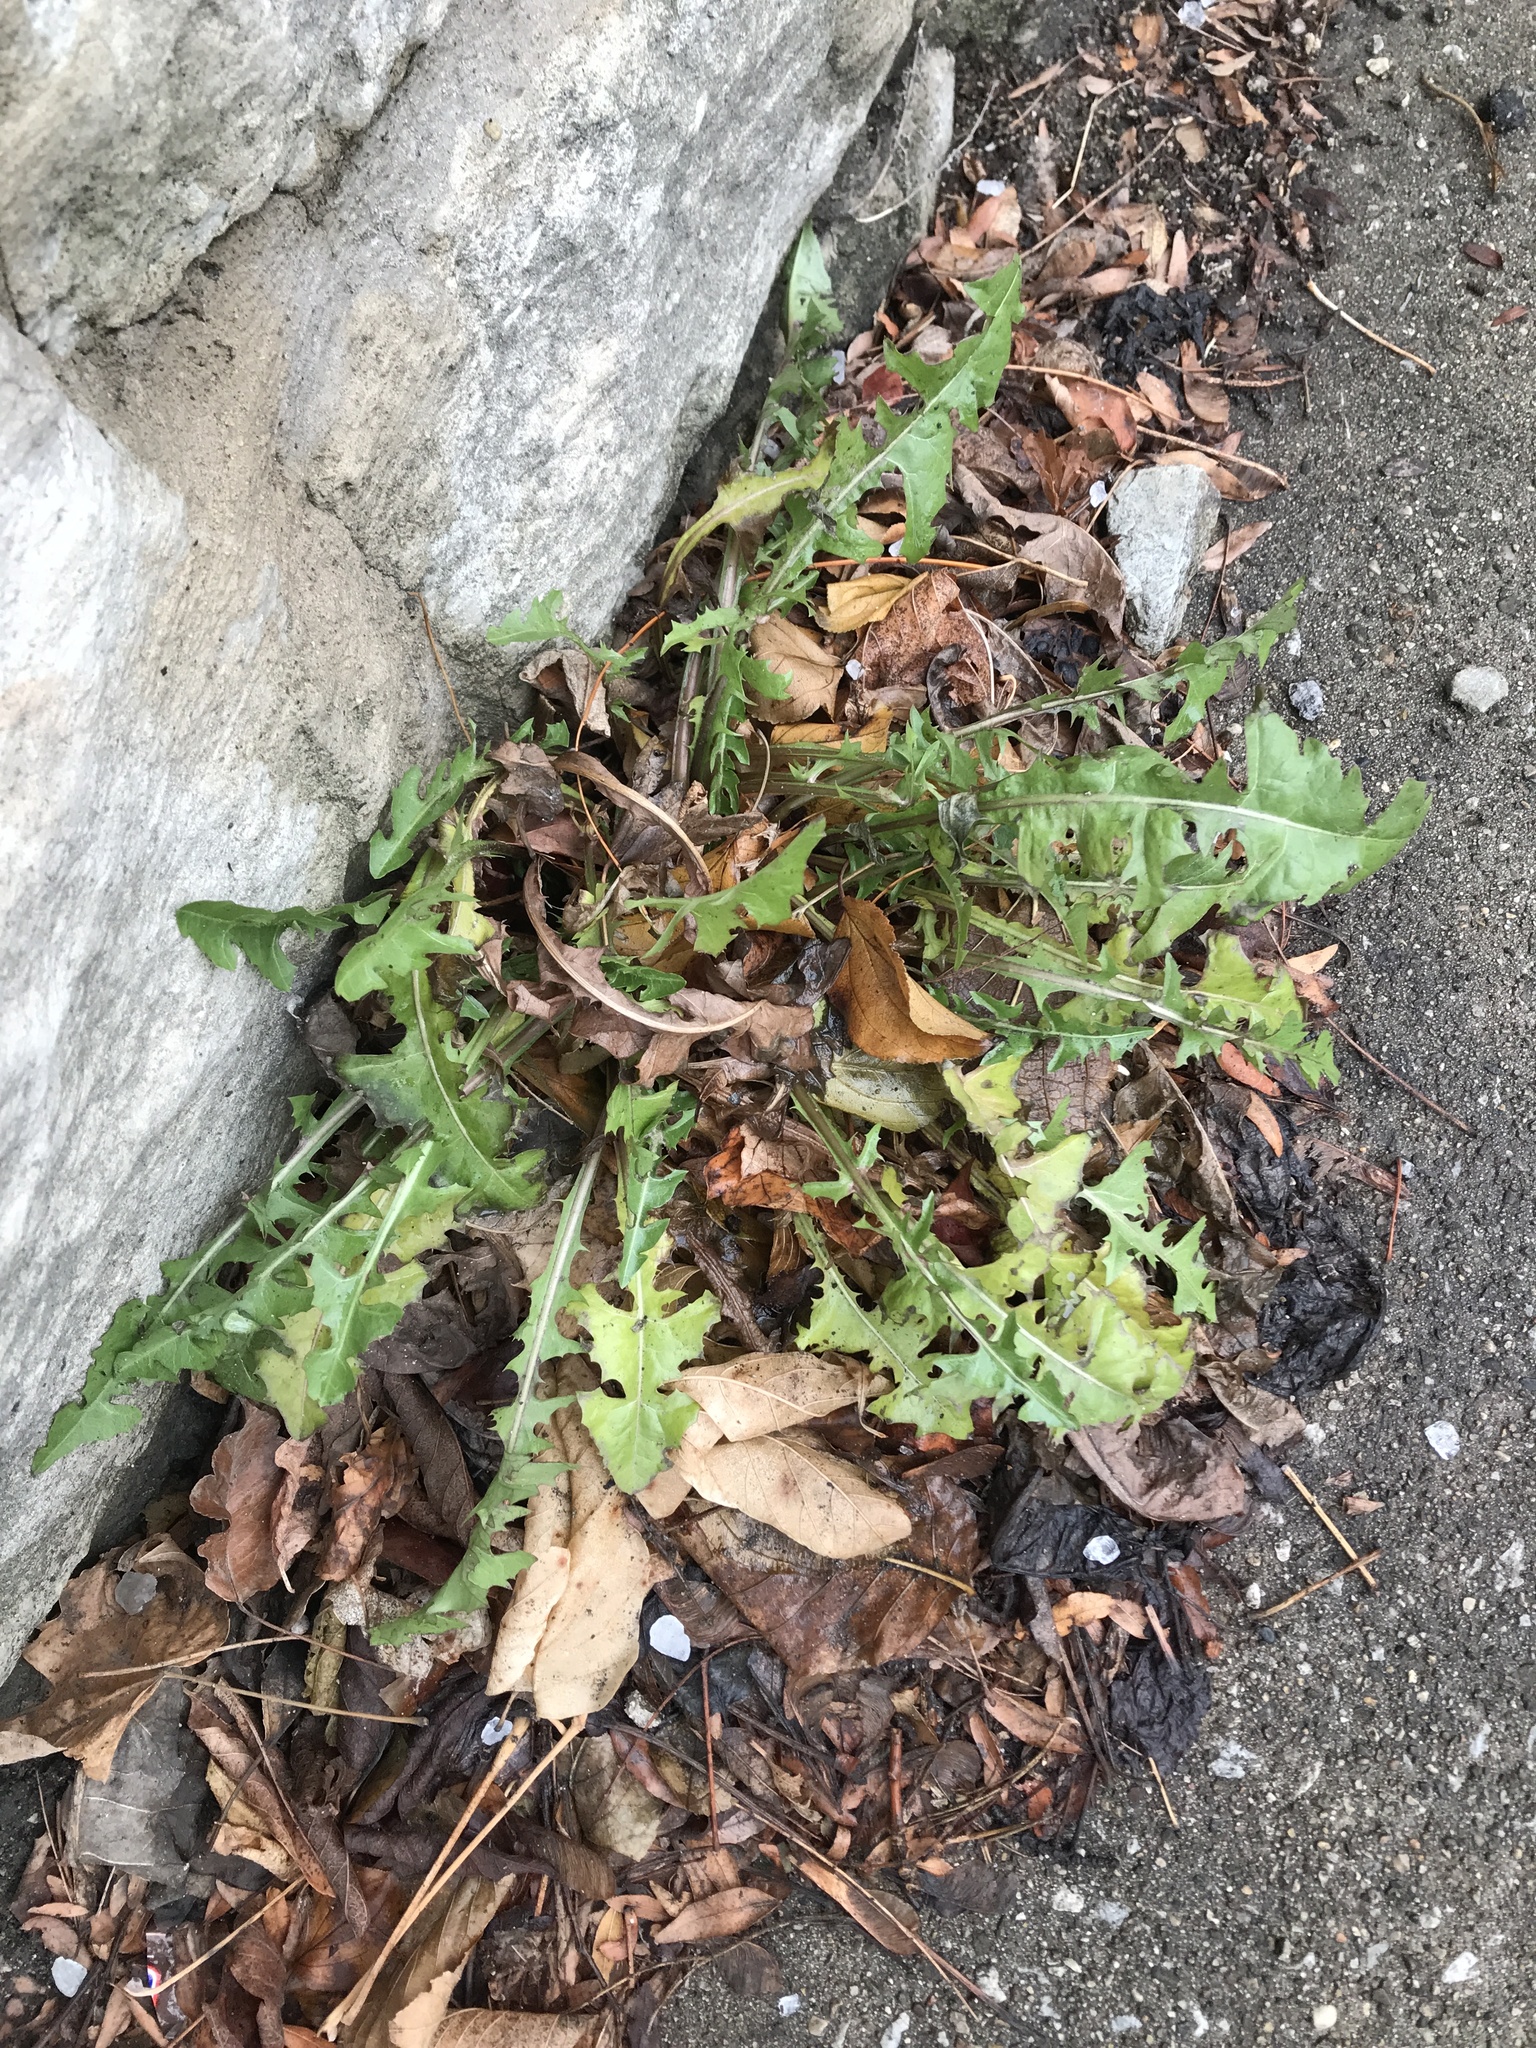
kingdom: Plantae
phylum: Tracheophyta
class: Magnoliopsida
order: Asterales
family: Asteraceae
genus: Taraxacum
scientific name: Taraxacum officinale
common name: Common dandelion
